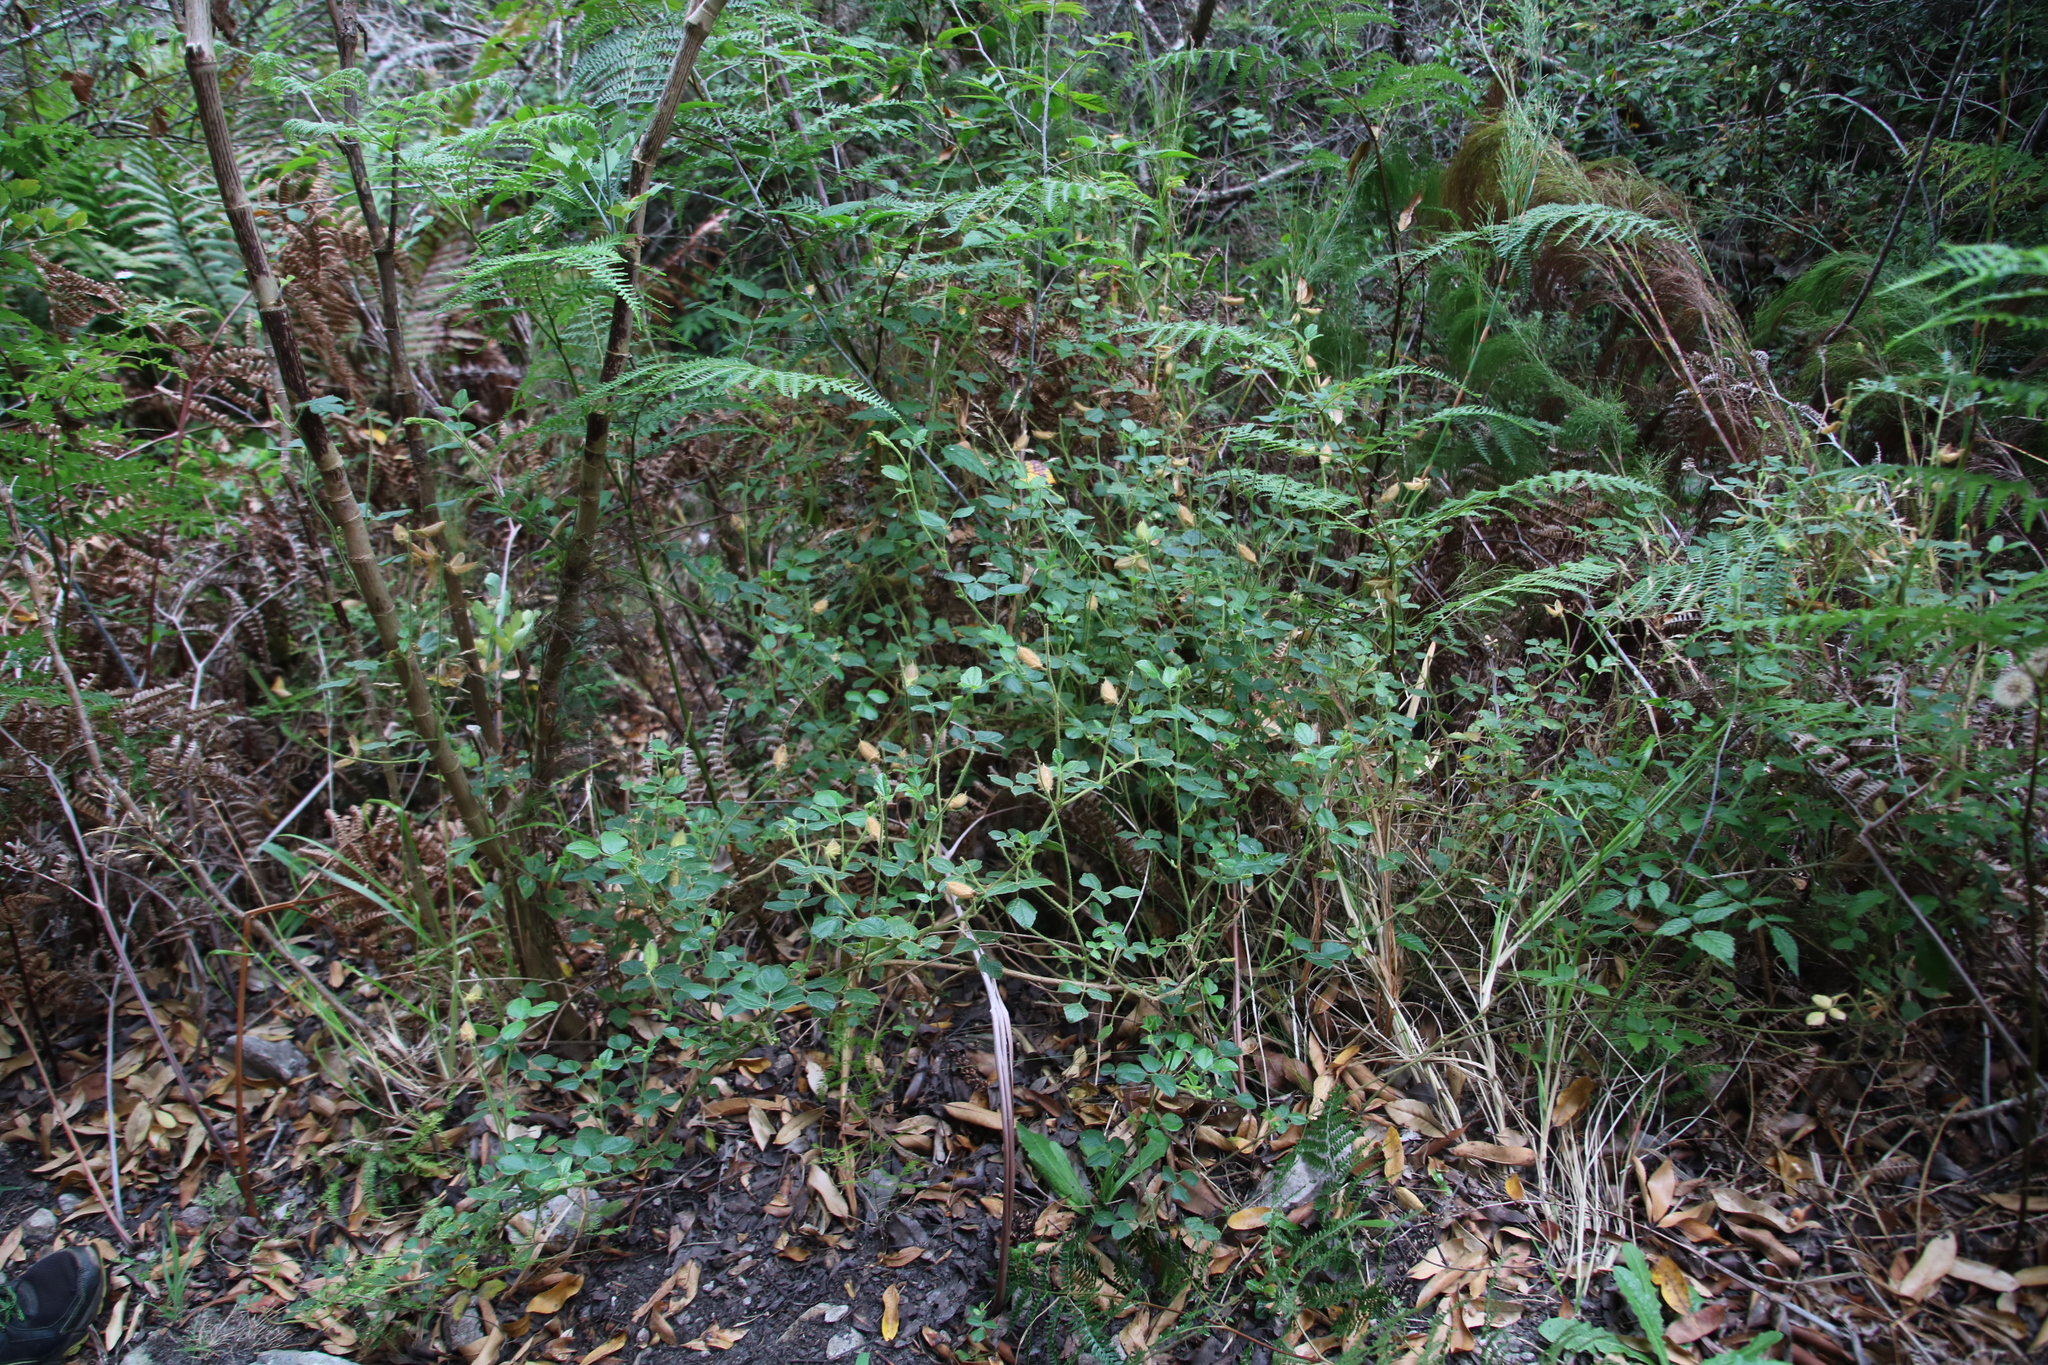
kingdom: Plantae
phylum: Tracheophyta
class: Magnoliopsida
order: Fabales
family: Fabaceae
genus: Bolusafra
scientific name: Bolusafra bituminosa
